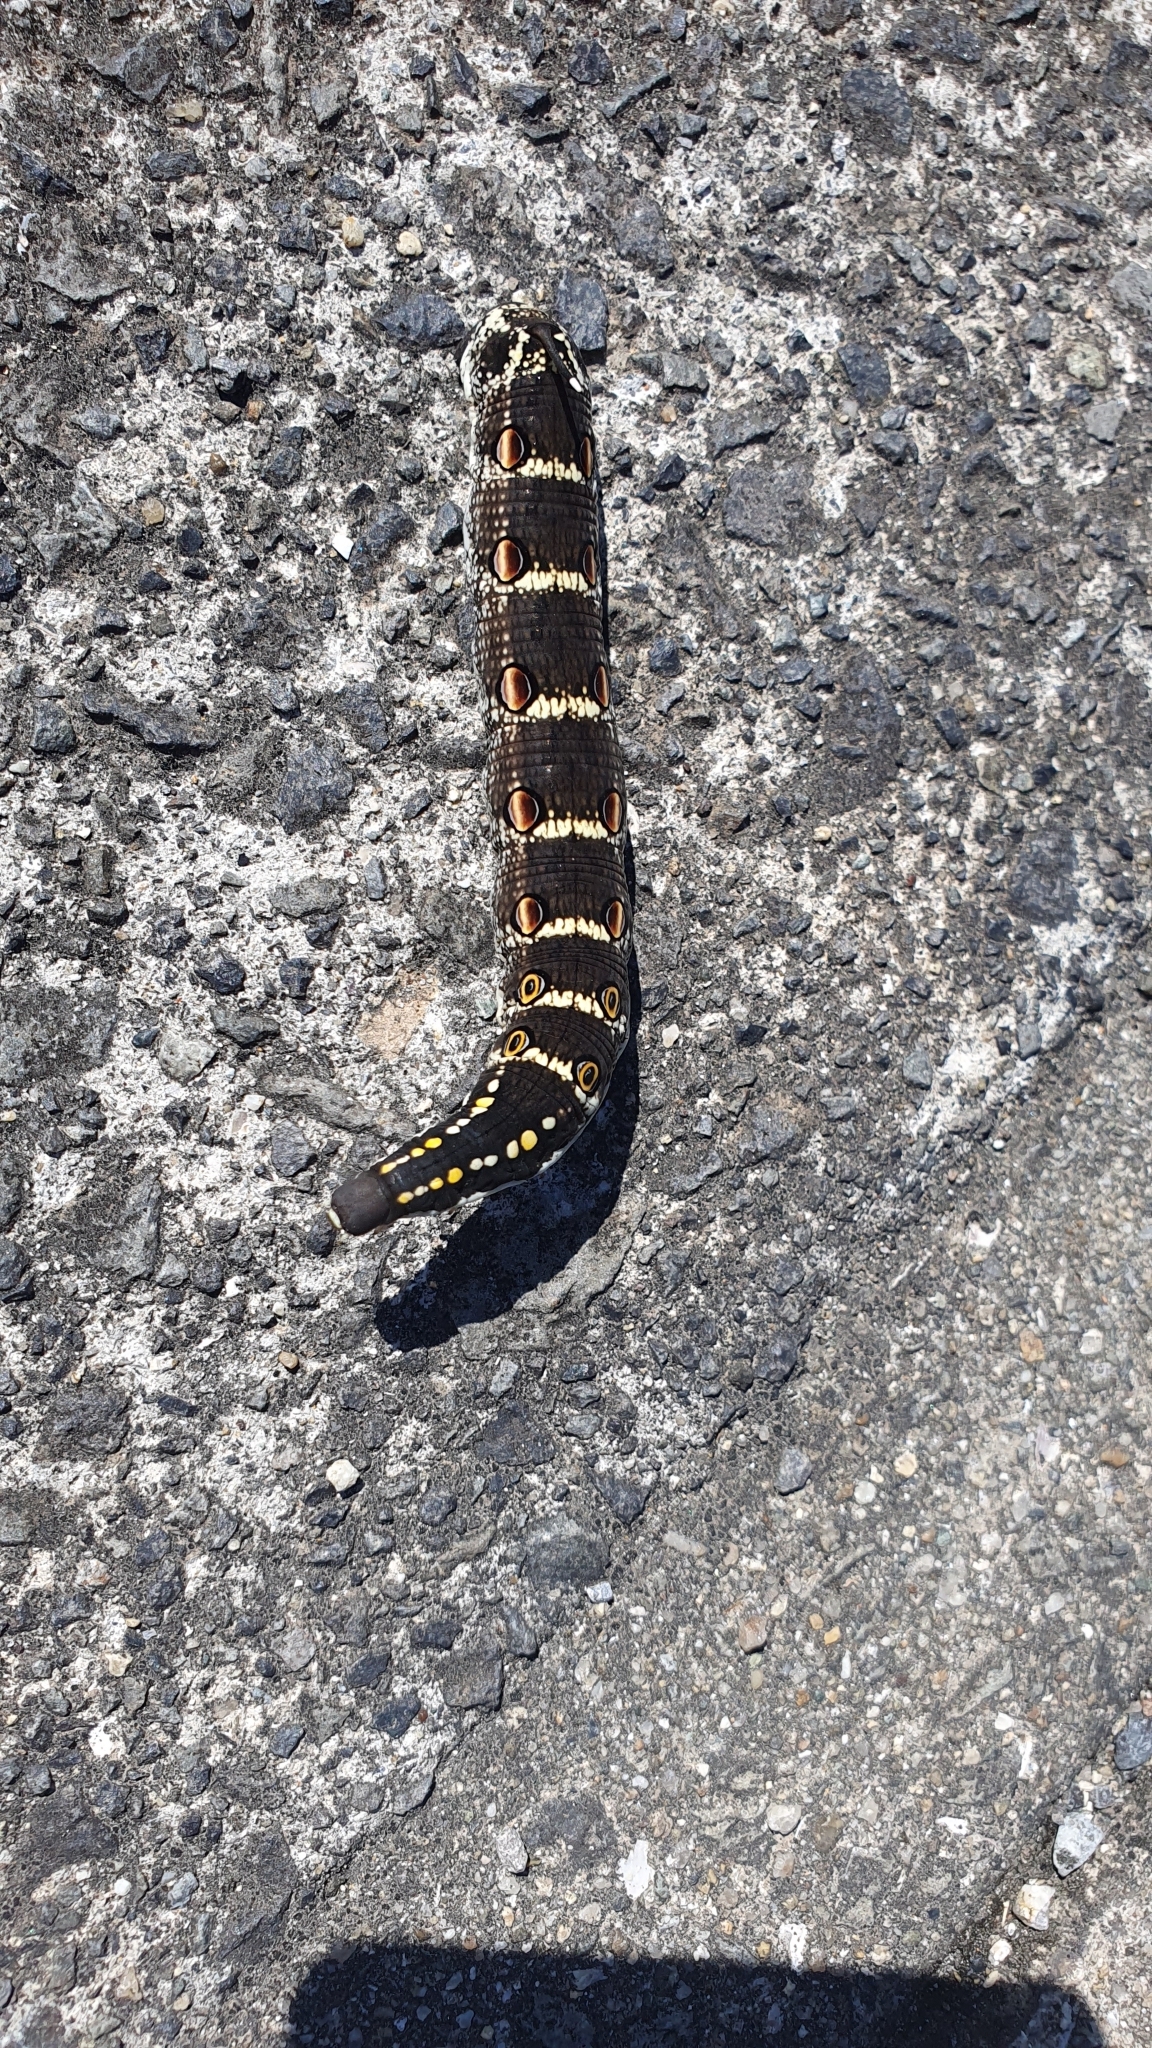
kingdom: Animalia
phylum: Arthropoda
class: Insecta
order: Lepidoptera
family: Sphingidae
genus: Theretra
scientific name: Theretra oldenlandiae
